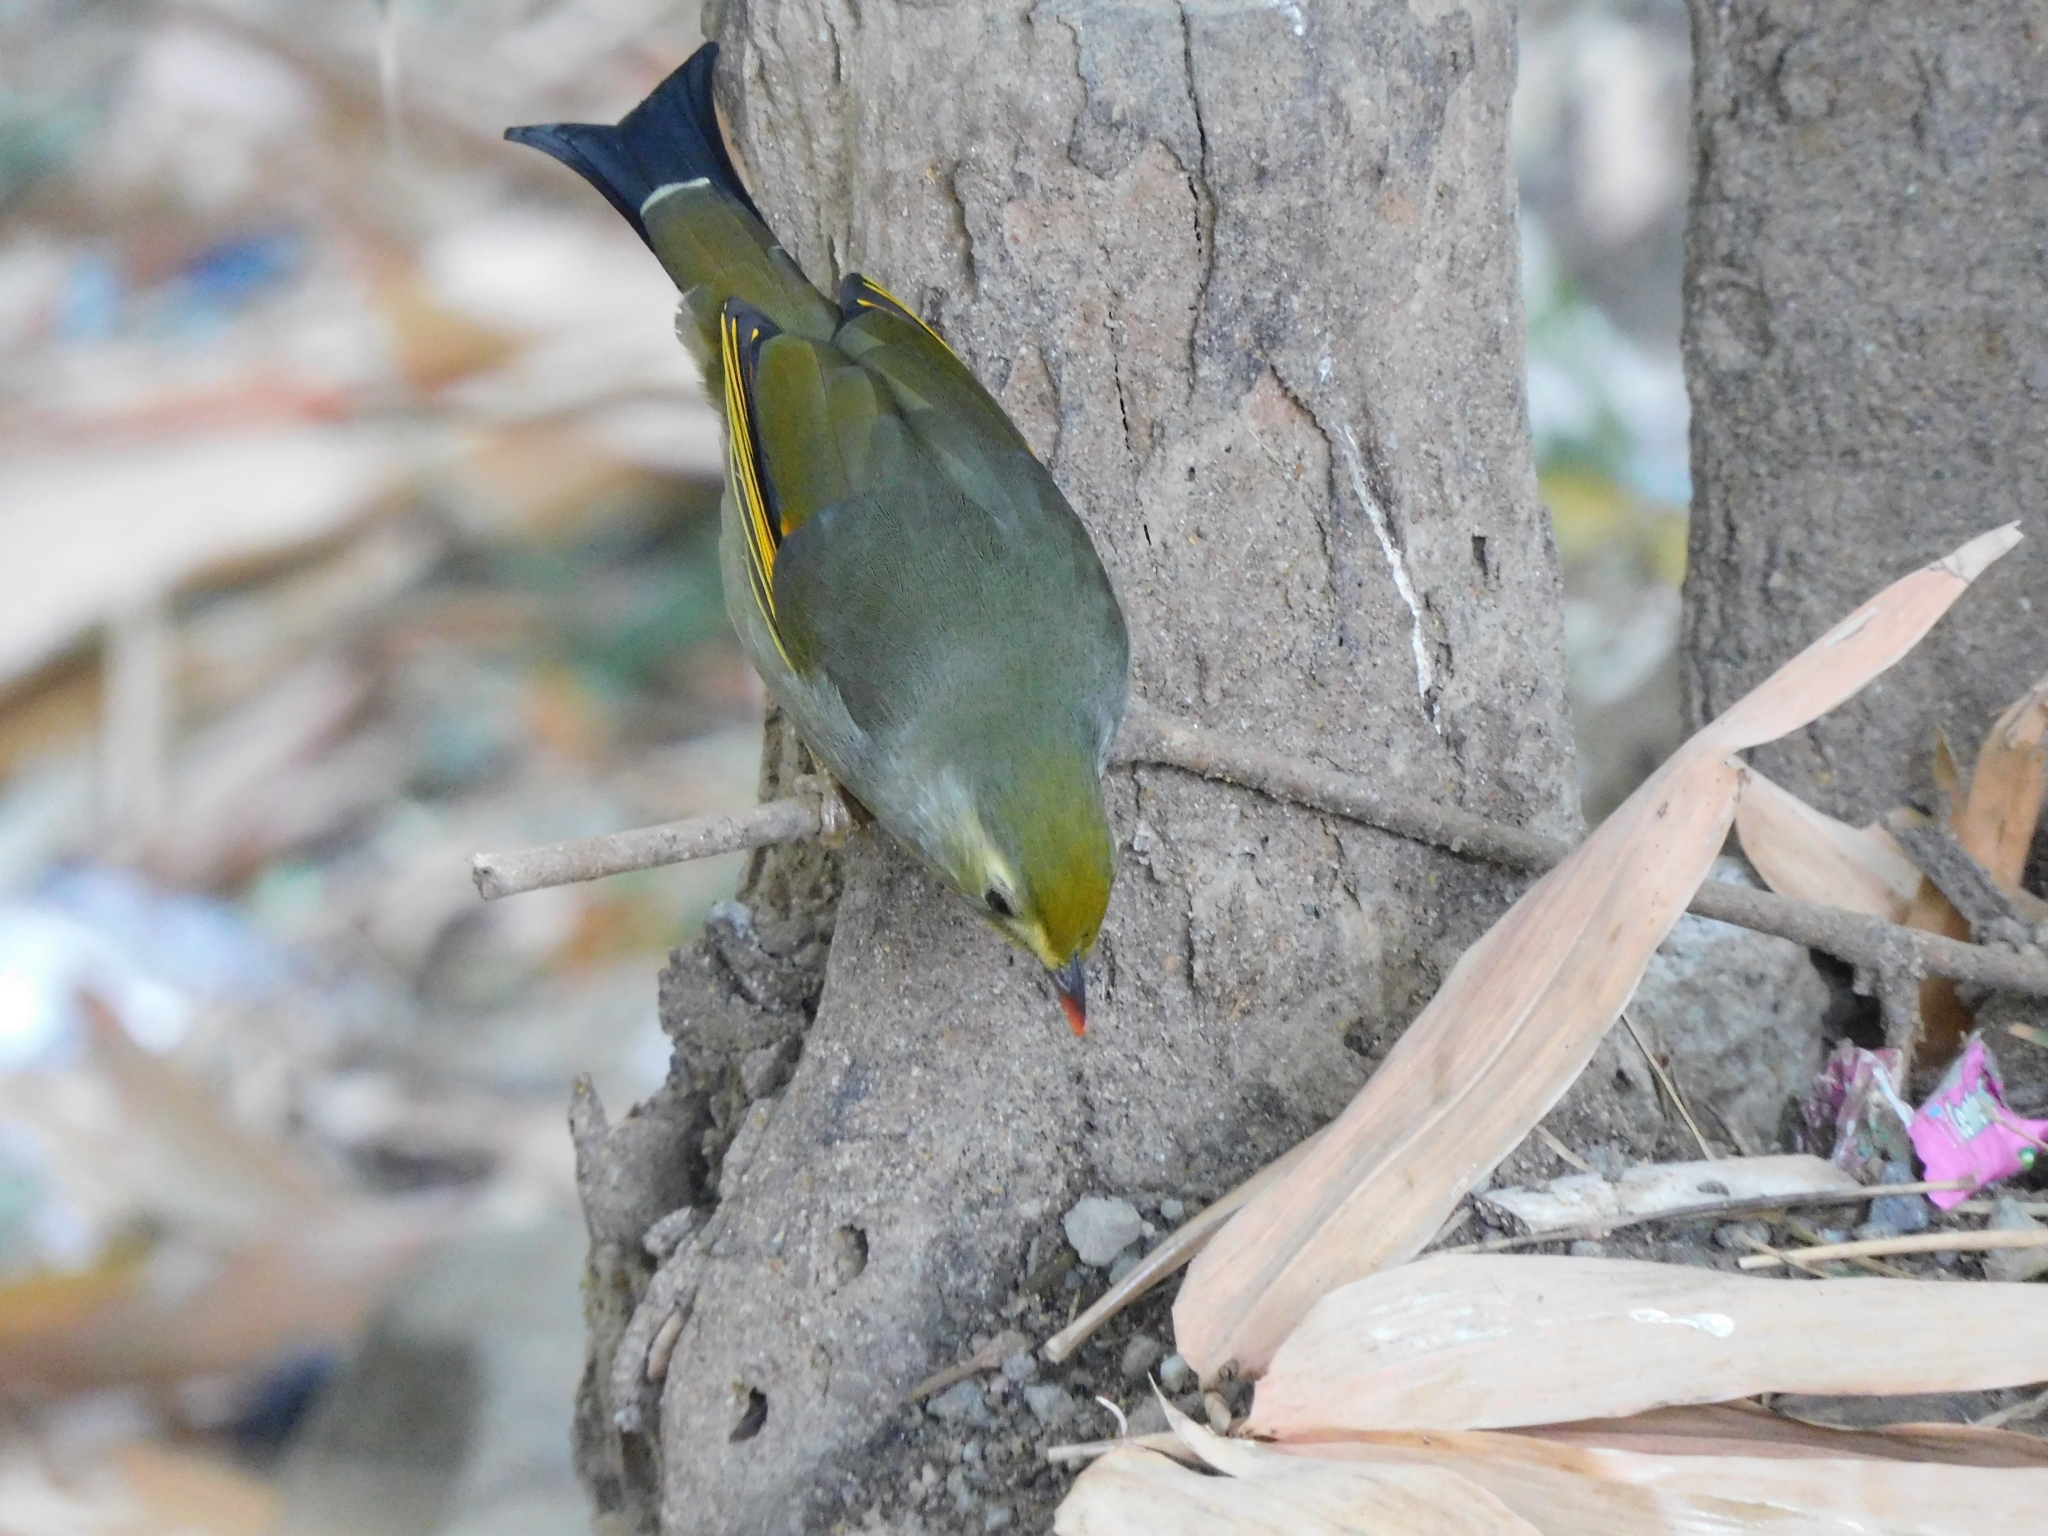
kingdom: Animalia
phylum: Chordata
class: Aves
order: Passeriformes
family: Leiothrichidae
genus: Leiothrix
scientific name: Leiothrix lutea
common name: Red-billed leiothrix
